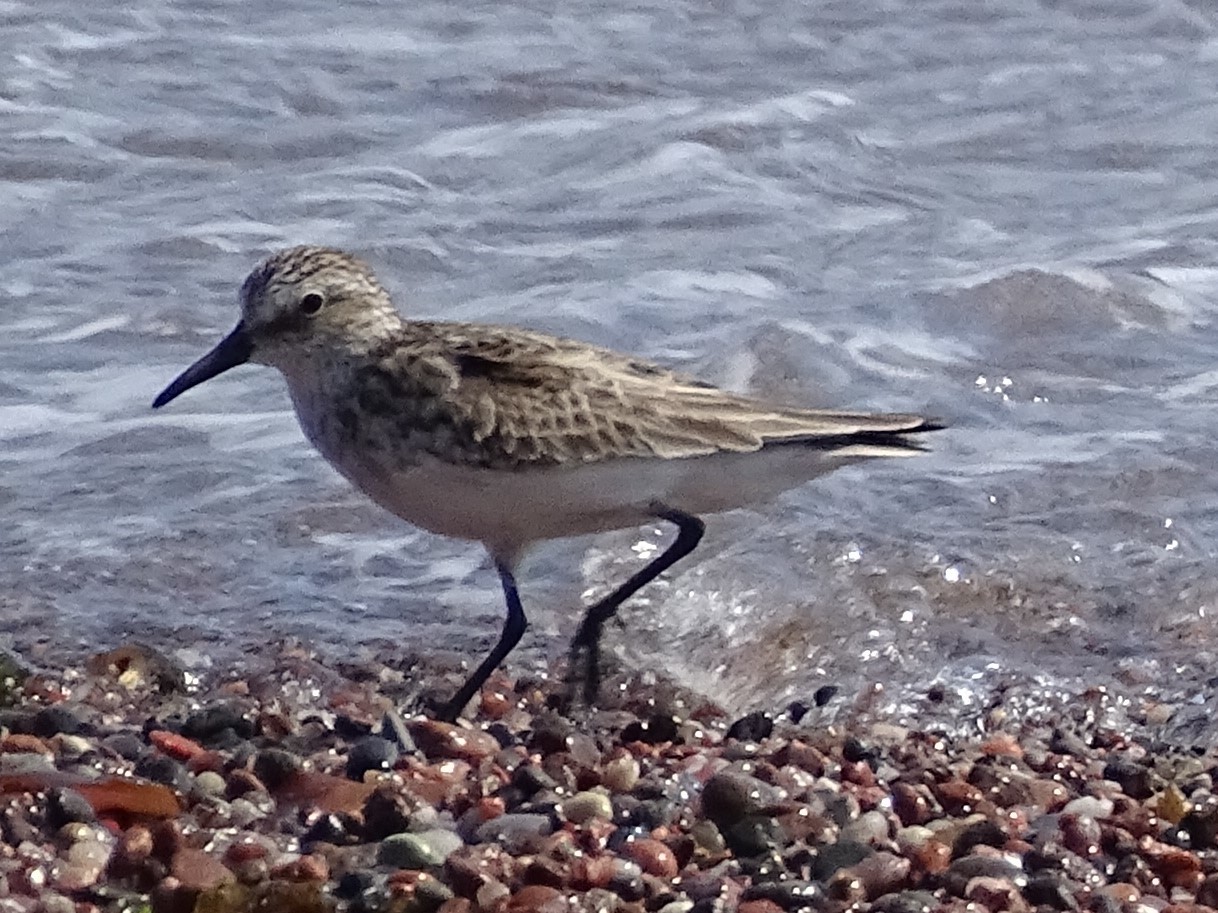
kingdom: Animalia
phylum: Chordata
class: Aves
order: Charadriiformes
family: Scolopacidae
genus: Calidris
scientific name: Calidris fuscicollis
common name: White-rumped sandpiper
